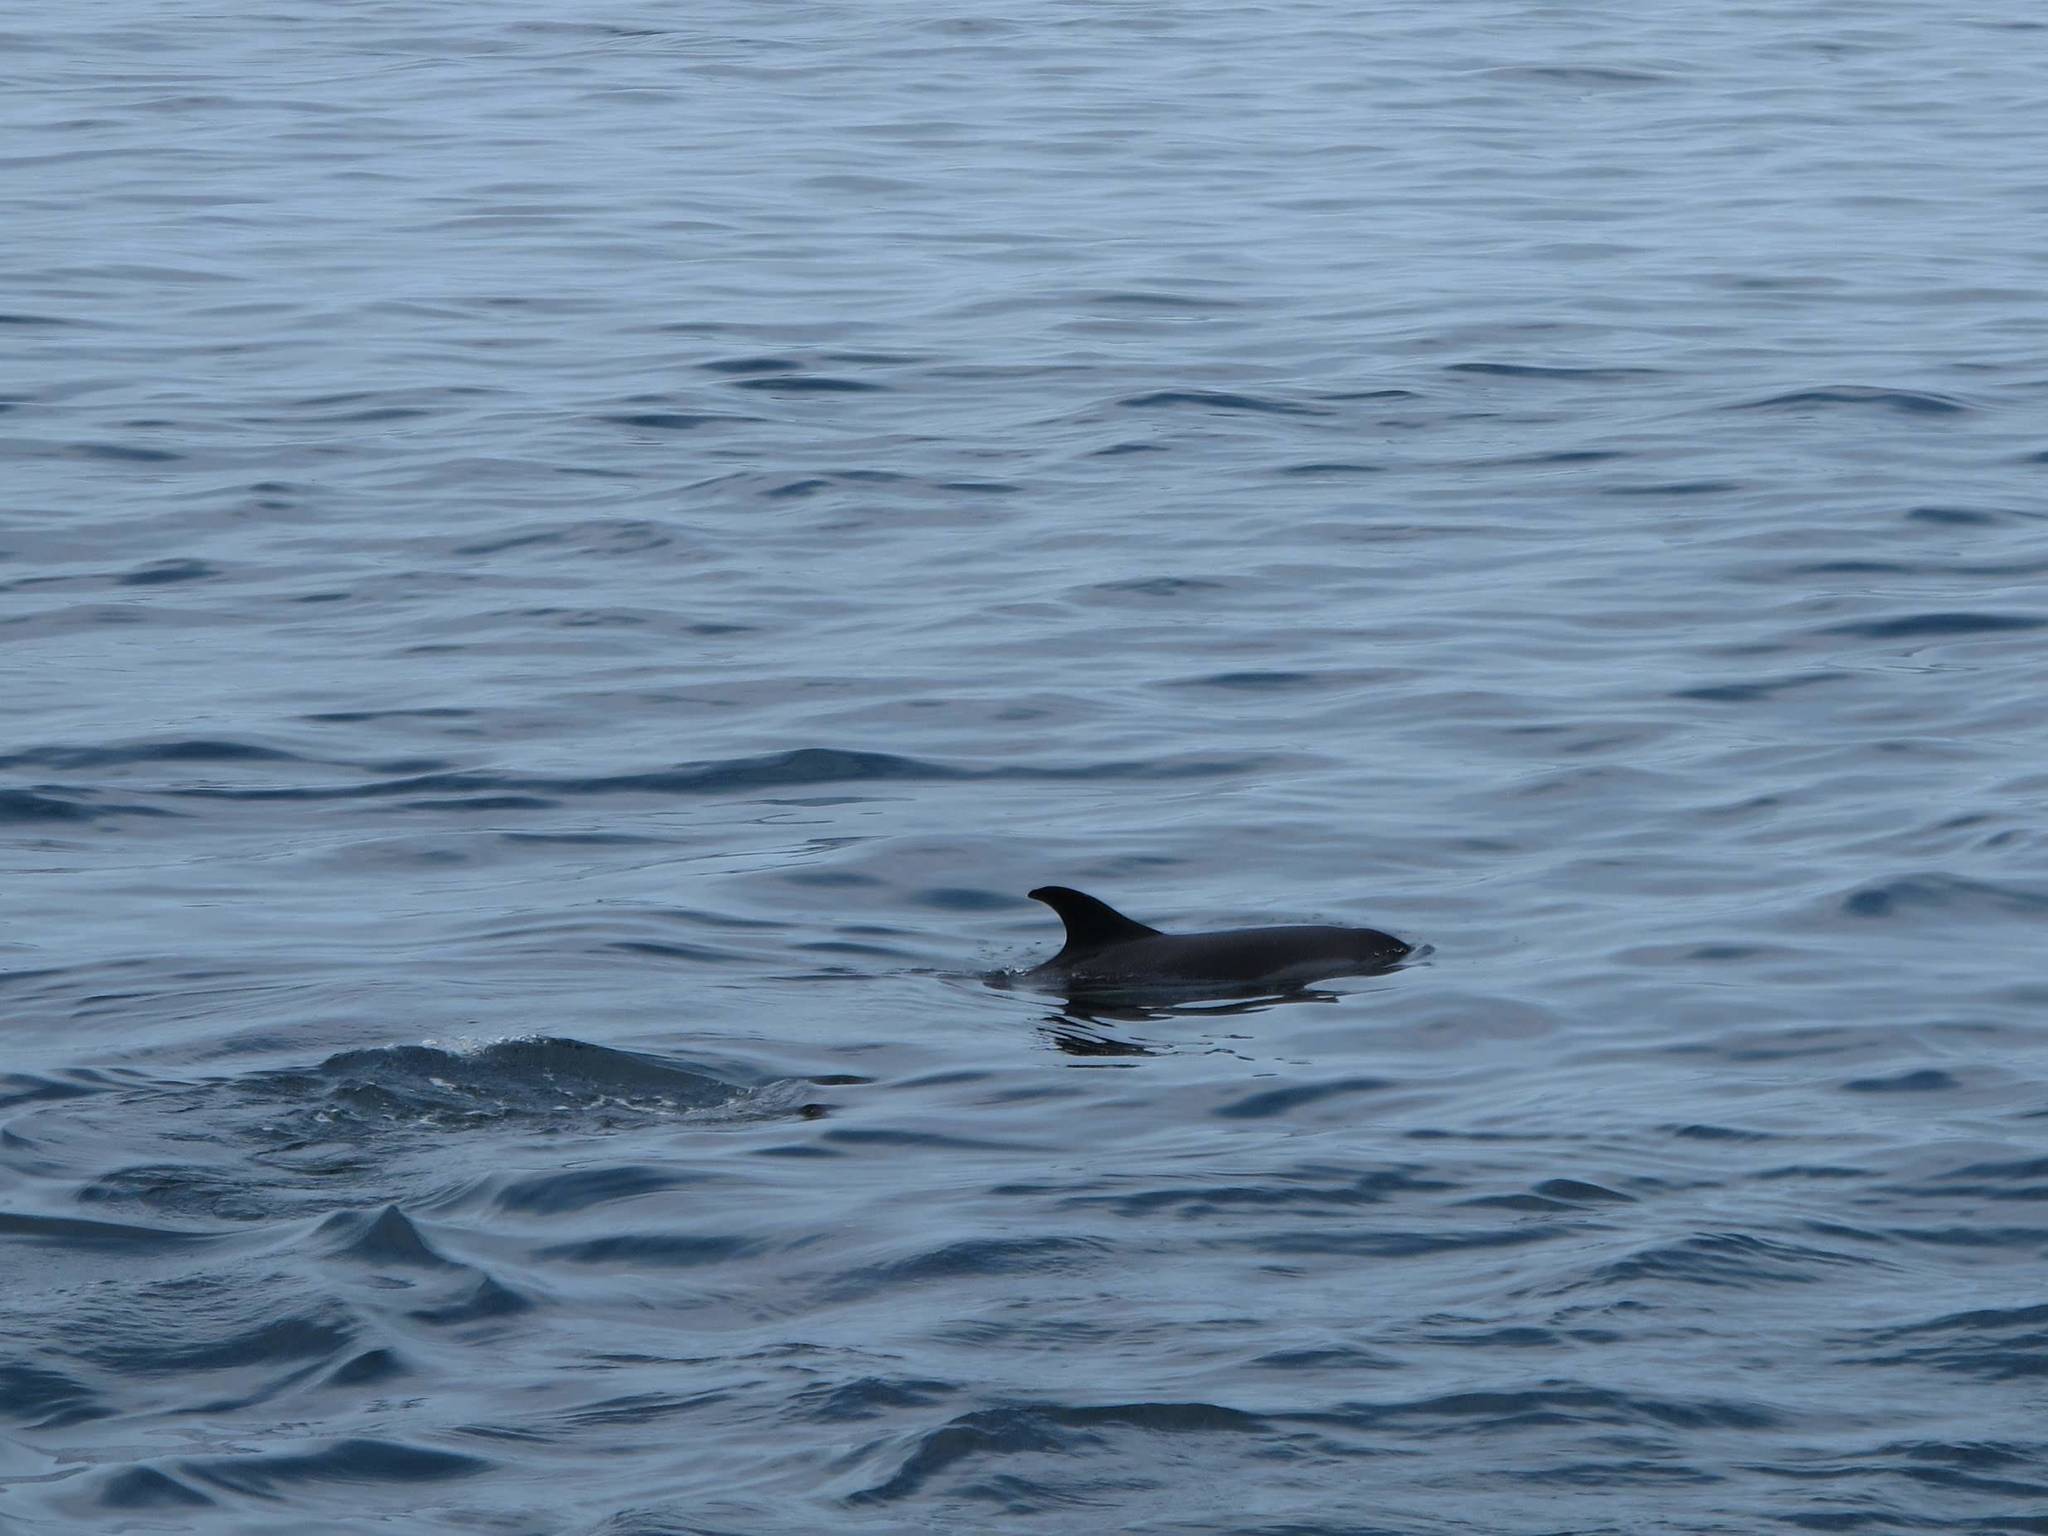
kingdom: Animalia
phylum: Chordata
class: Mammalia
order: Cetacea
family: Delphinidae
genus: Lagenorhynchus
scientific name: Lagenorhynchus acutus
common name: Atlantic white-sided dolphin
